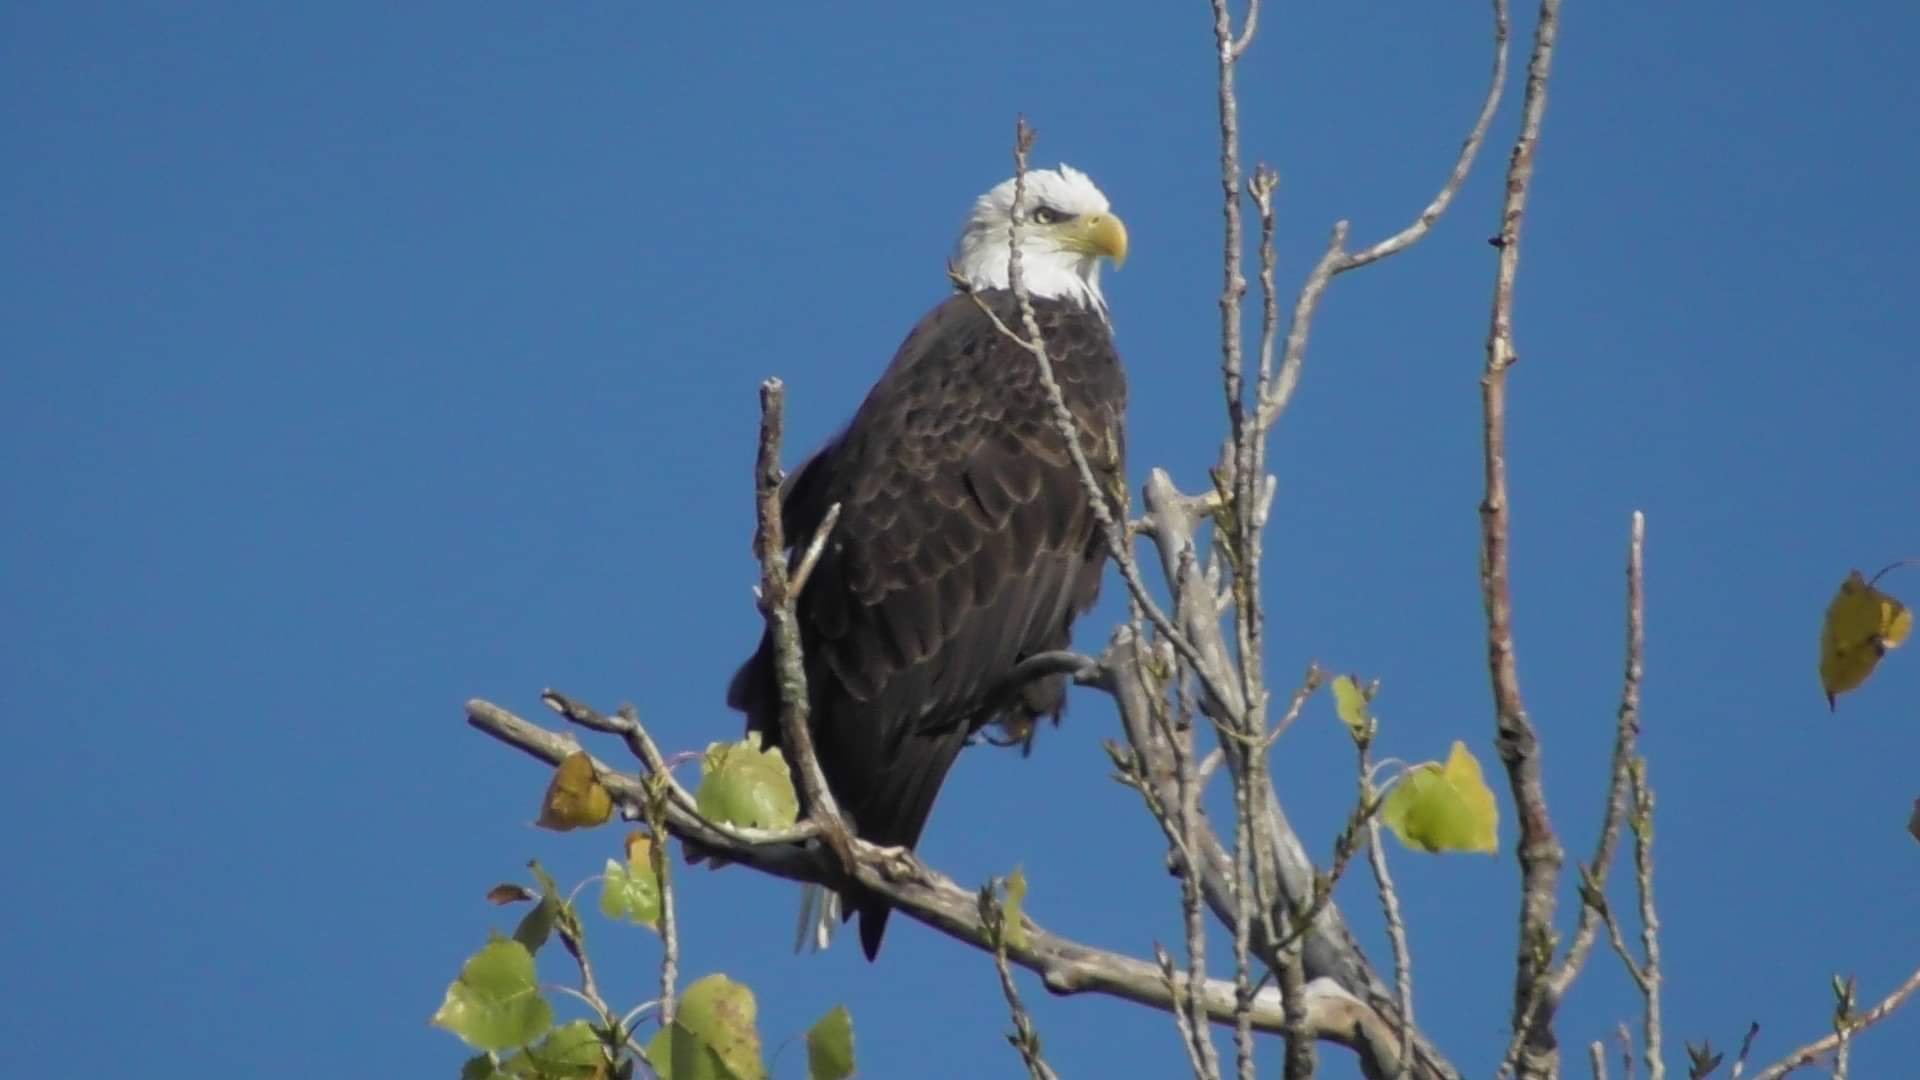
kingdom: Animalia
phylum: Chordata
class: Aves
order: Accipitriformes
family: Accipitridae
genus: Haliaeetus
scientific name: Haliaeetus leucocephalus
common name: Bald eagle
